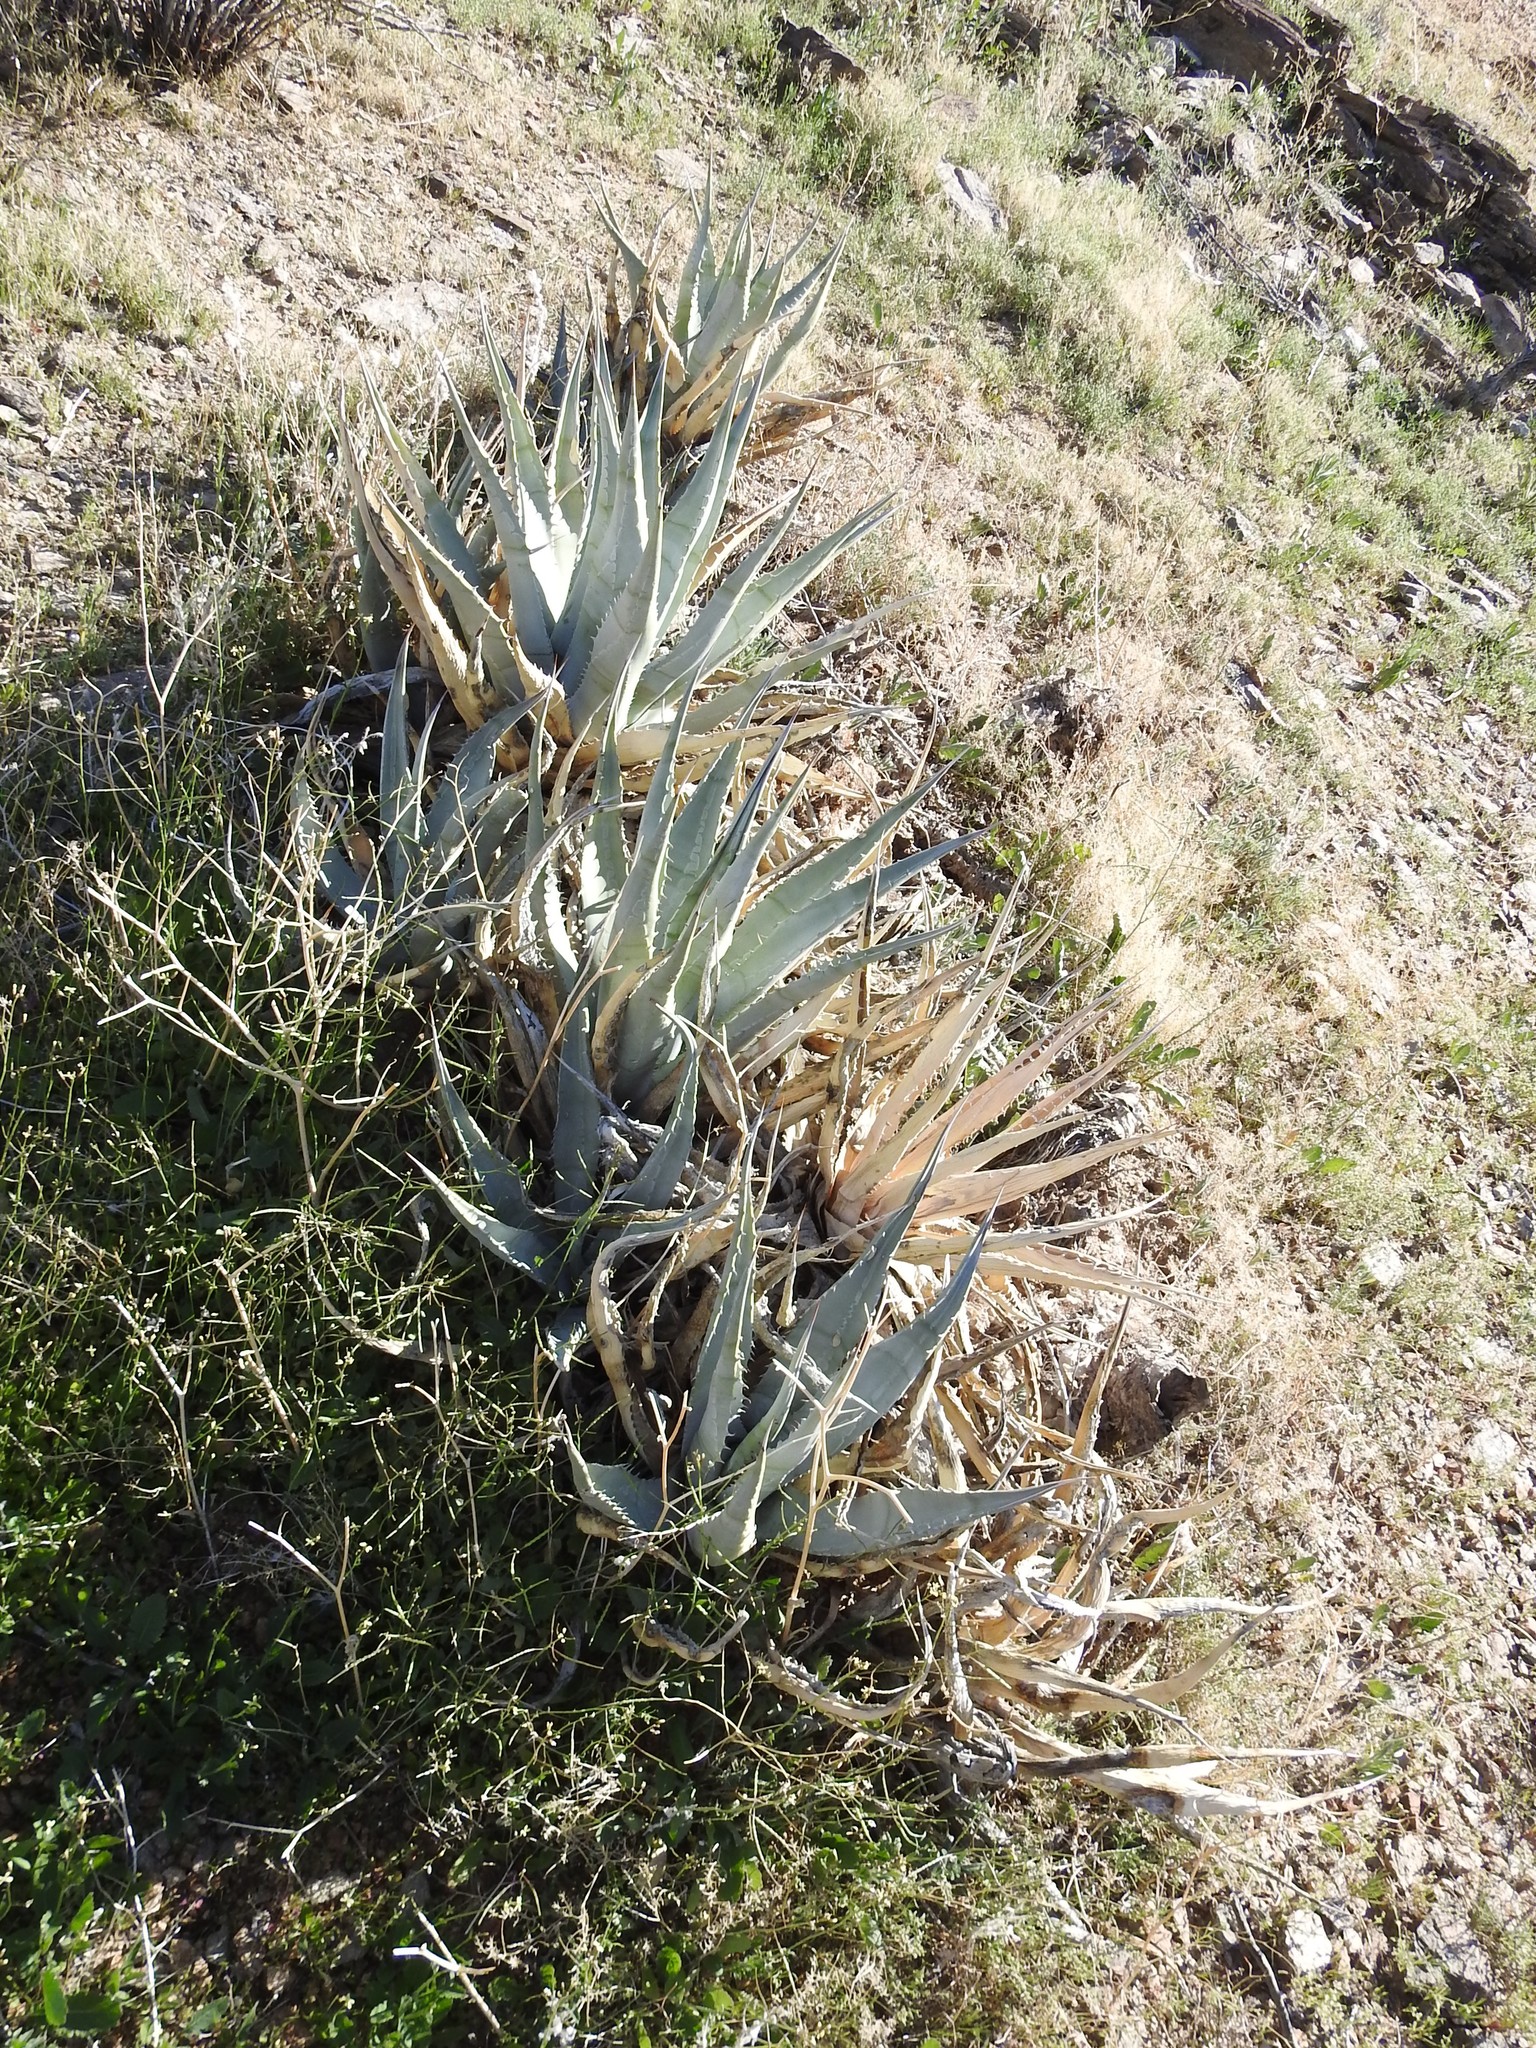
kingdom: Plantae
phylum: Tracheophyta
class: Liliopsida
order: Asparagales
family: Asparagaceae
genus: Agave
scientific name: Agave deserti
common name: Desert agave
